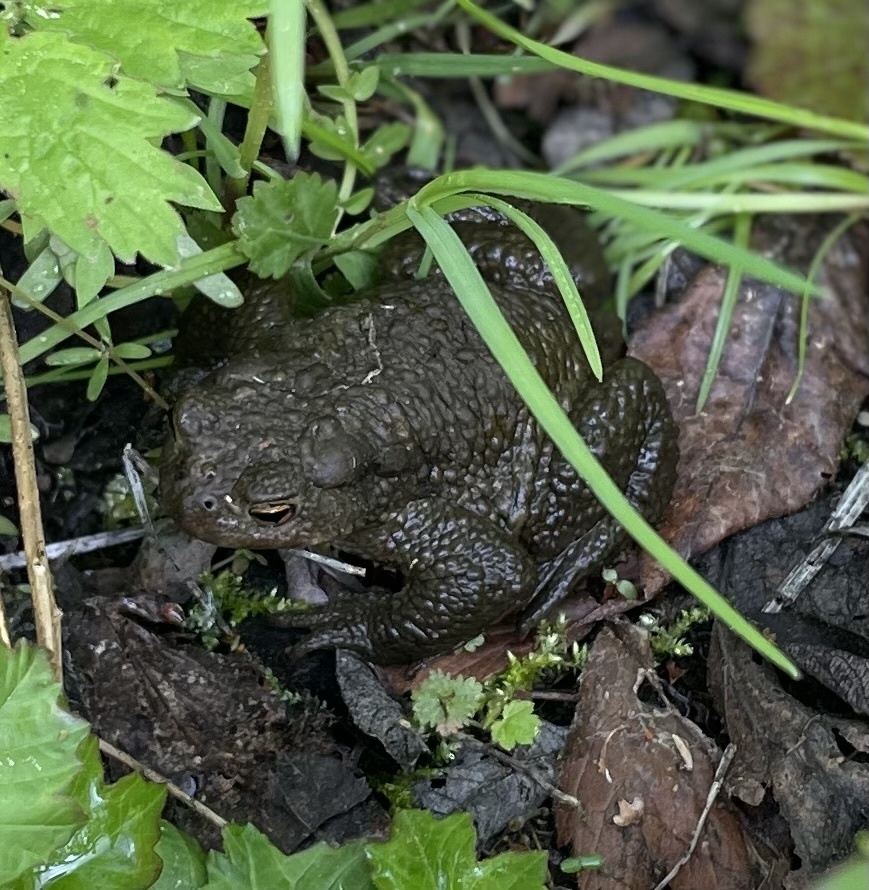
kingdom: Animalia
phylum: Chordata
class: Amphibia
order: Anura
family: Bufonidae
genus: Bufo
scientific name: Bufo bufo
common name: Common toad
